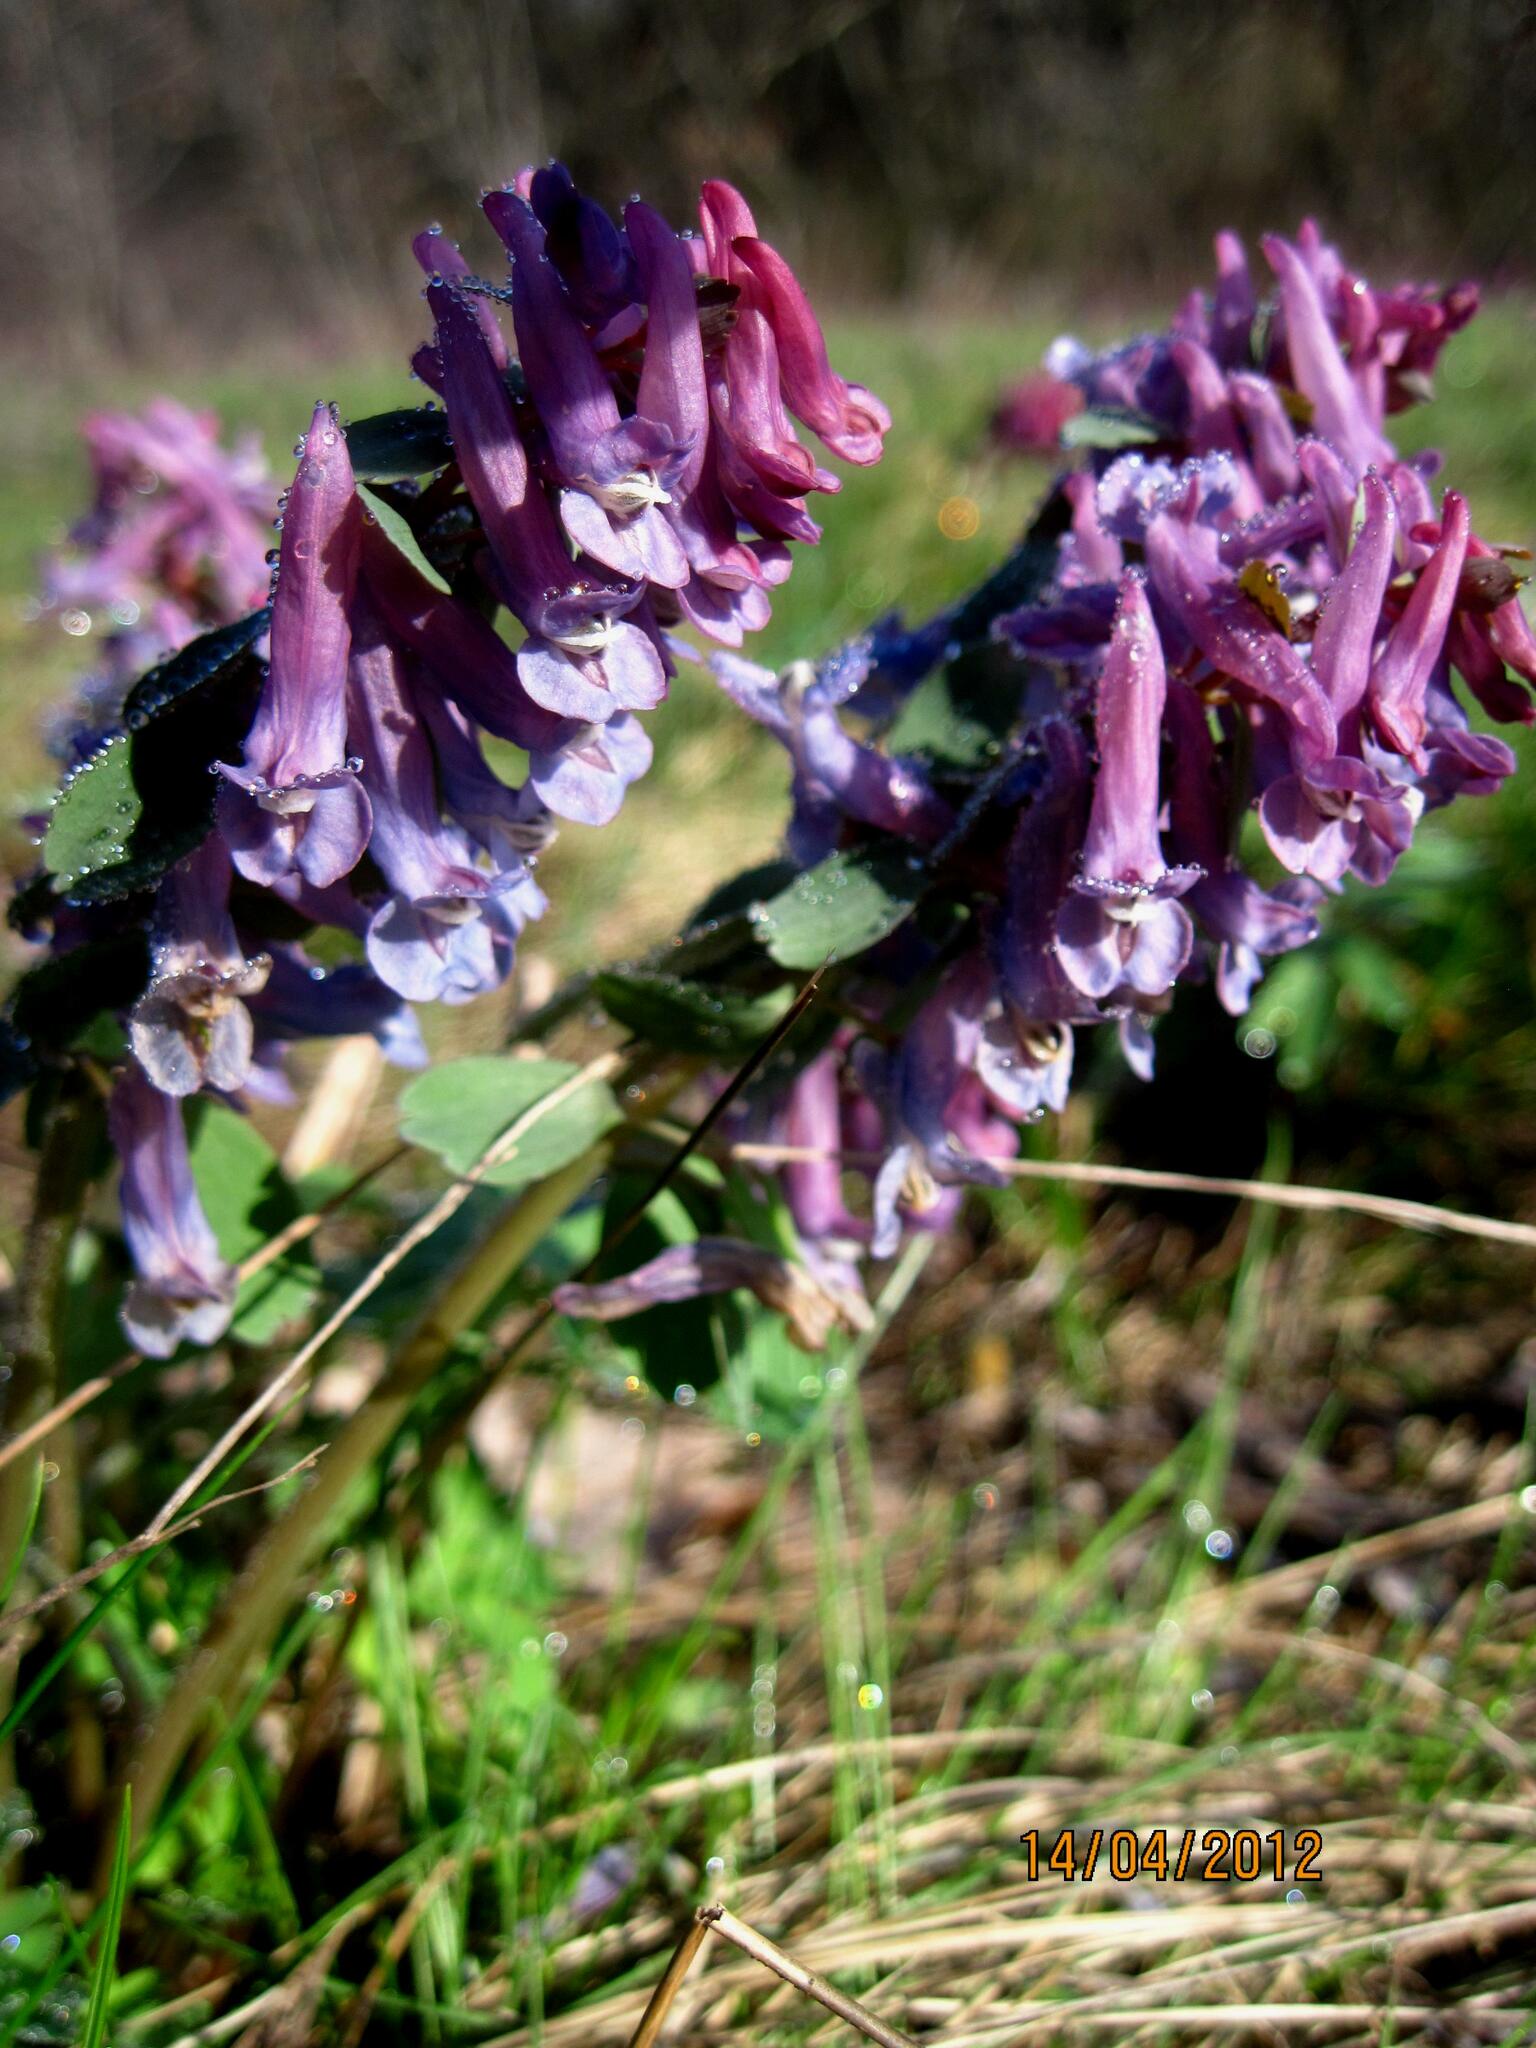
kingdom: Plantae
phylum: Tracheophyta
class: Magnoliopsida
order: Ranunculales
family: Papaveraceae
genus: Corydalis
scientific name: Corydalis solida
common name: Bird-in-a-bush
